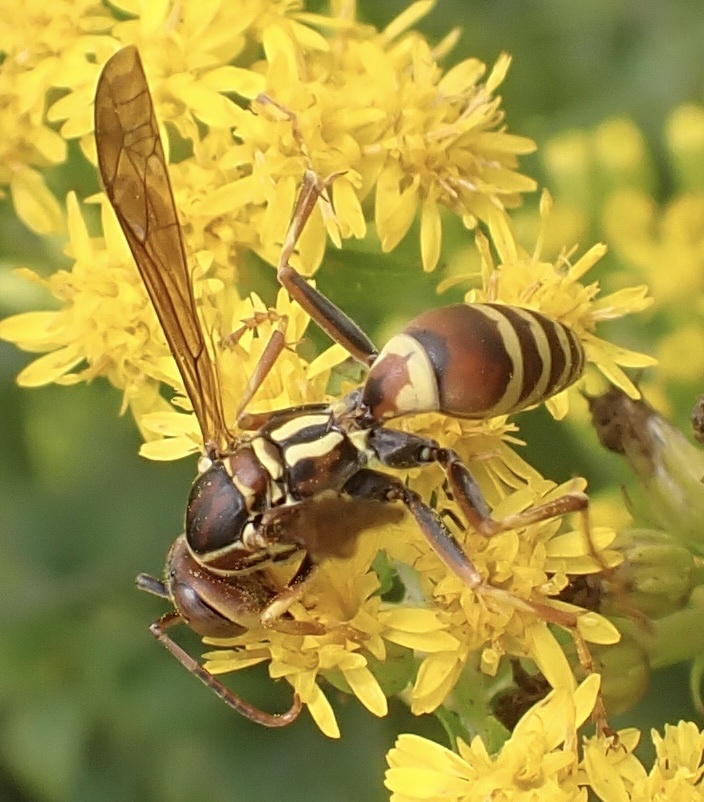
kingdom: Animalia
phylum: Arthropoda
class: Insecta
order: Hymenoptera
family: Eumenidae
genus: Polistes
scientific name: Polistes dorsalis
